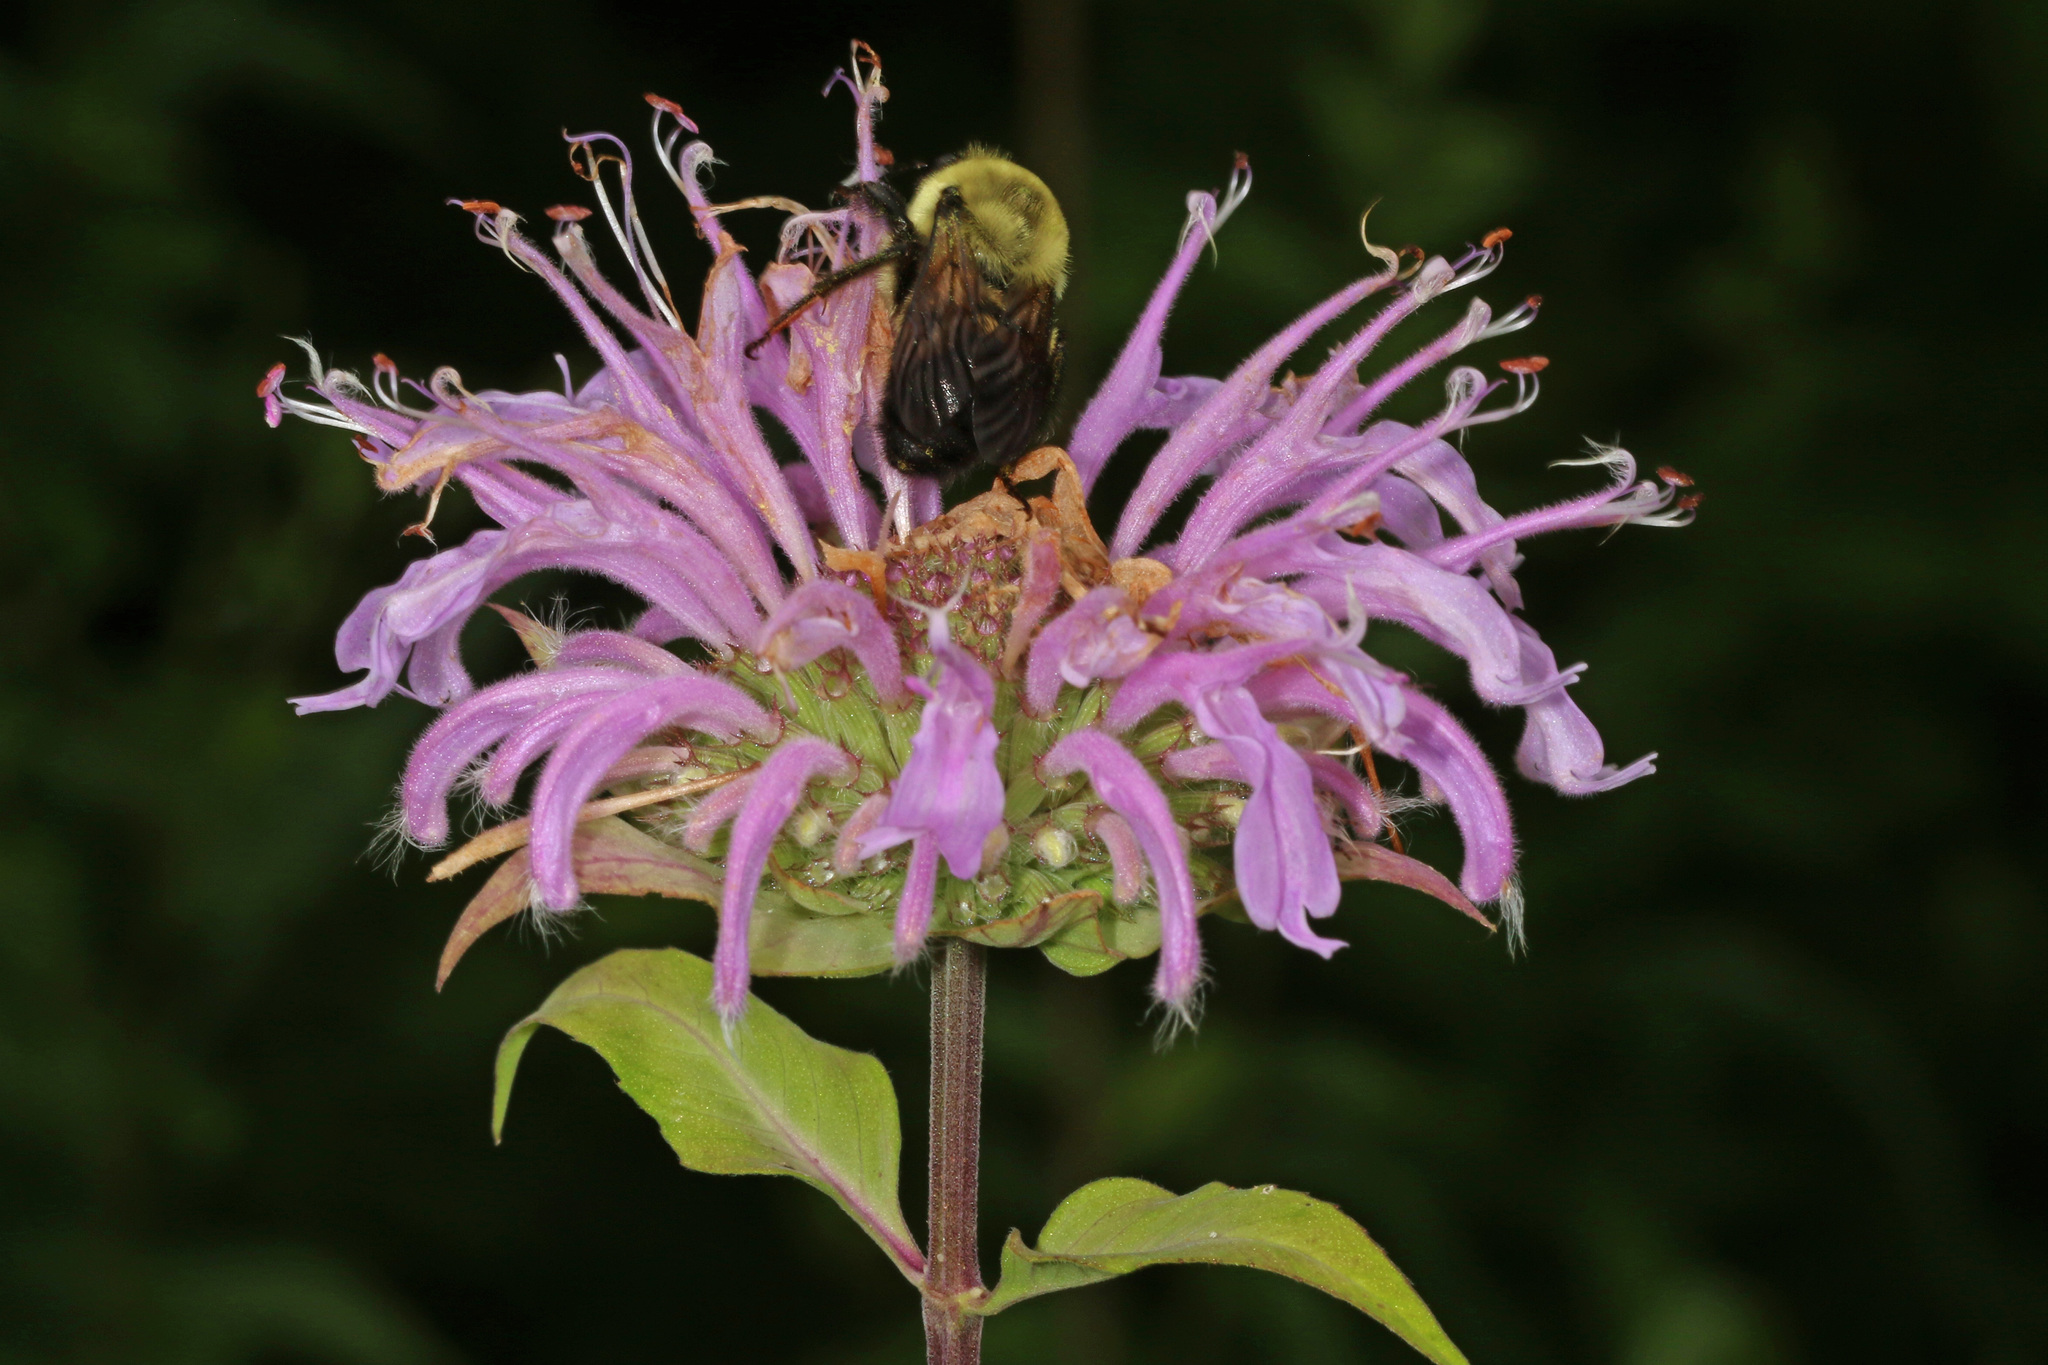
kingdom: Animalia
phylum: Arthropoda
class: Insecta
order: Hymenoptera
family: Apidae
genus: Bombus
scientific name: Bombus griseocollis
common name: Brown-belted bumble bee
